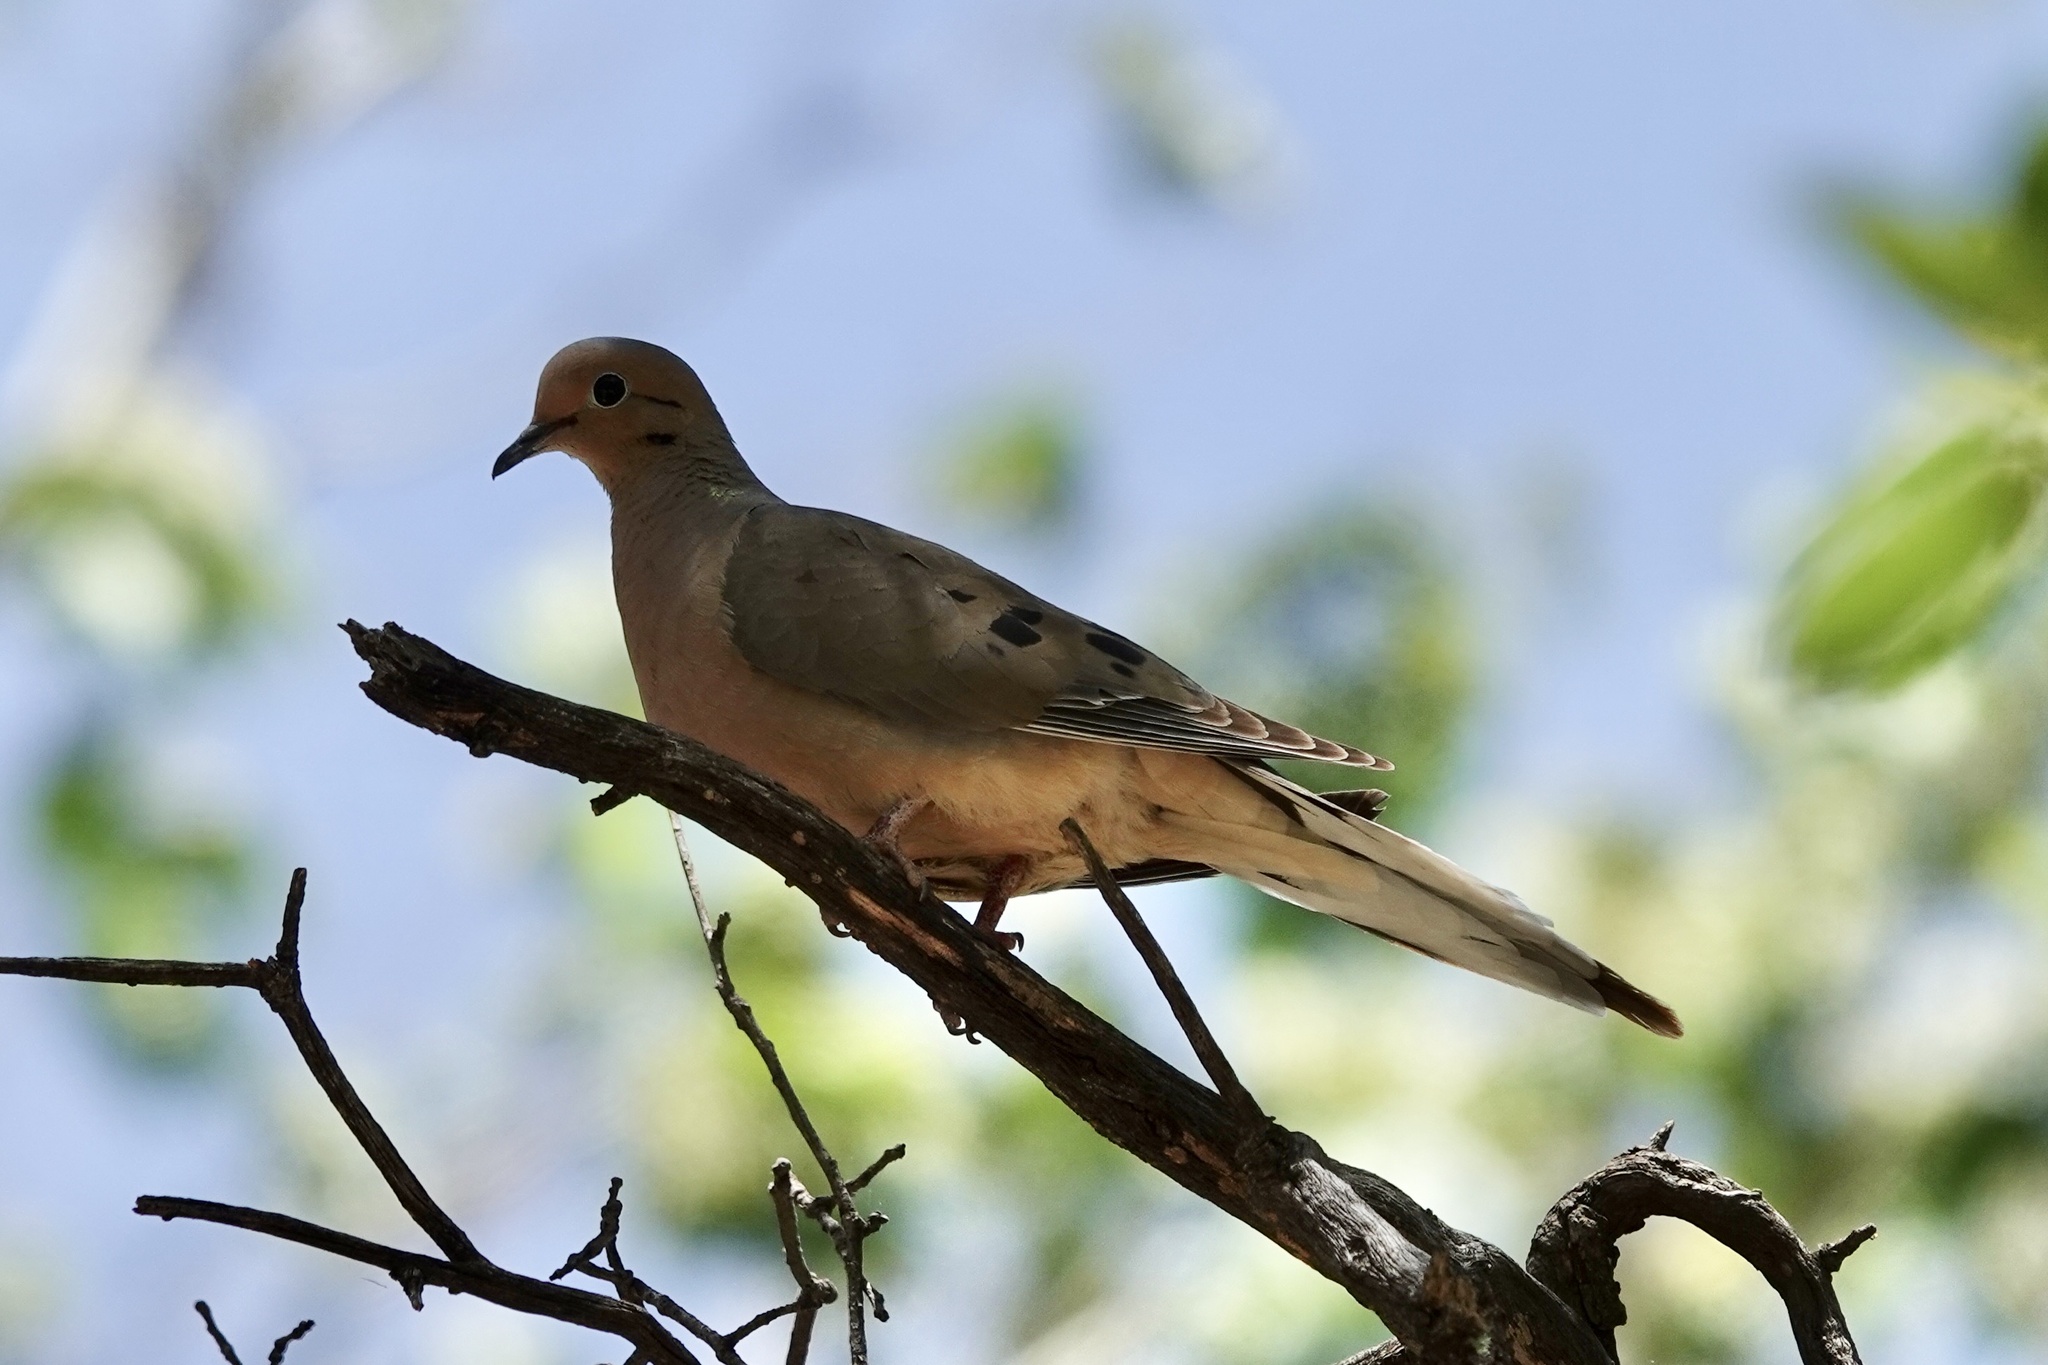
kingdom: Animalia
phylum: Chordata
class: Aves
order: Columbiformes
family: Columbidae
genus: Zenaida
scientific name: Zenaida macroura
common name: Mourning dove
